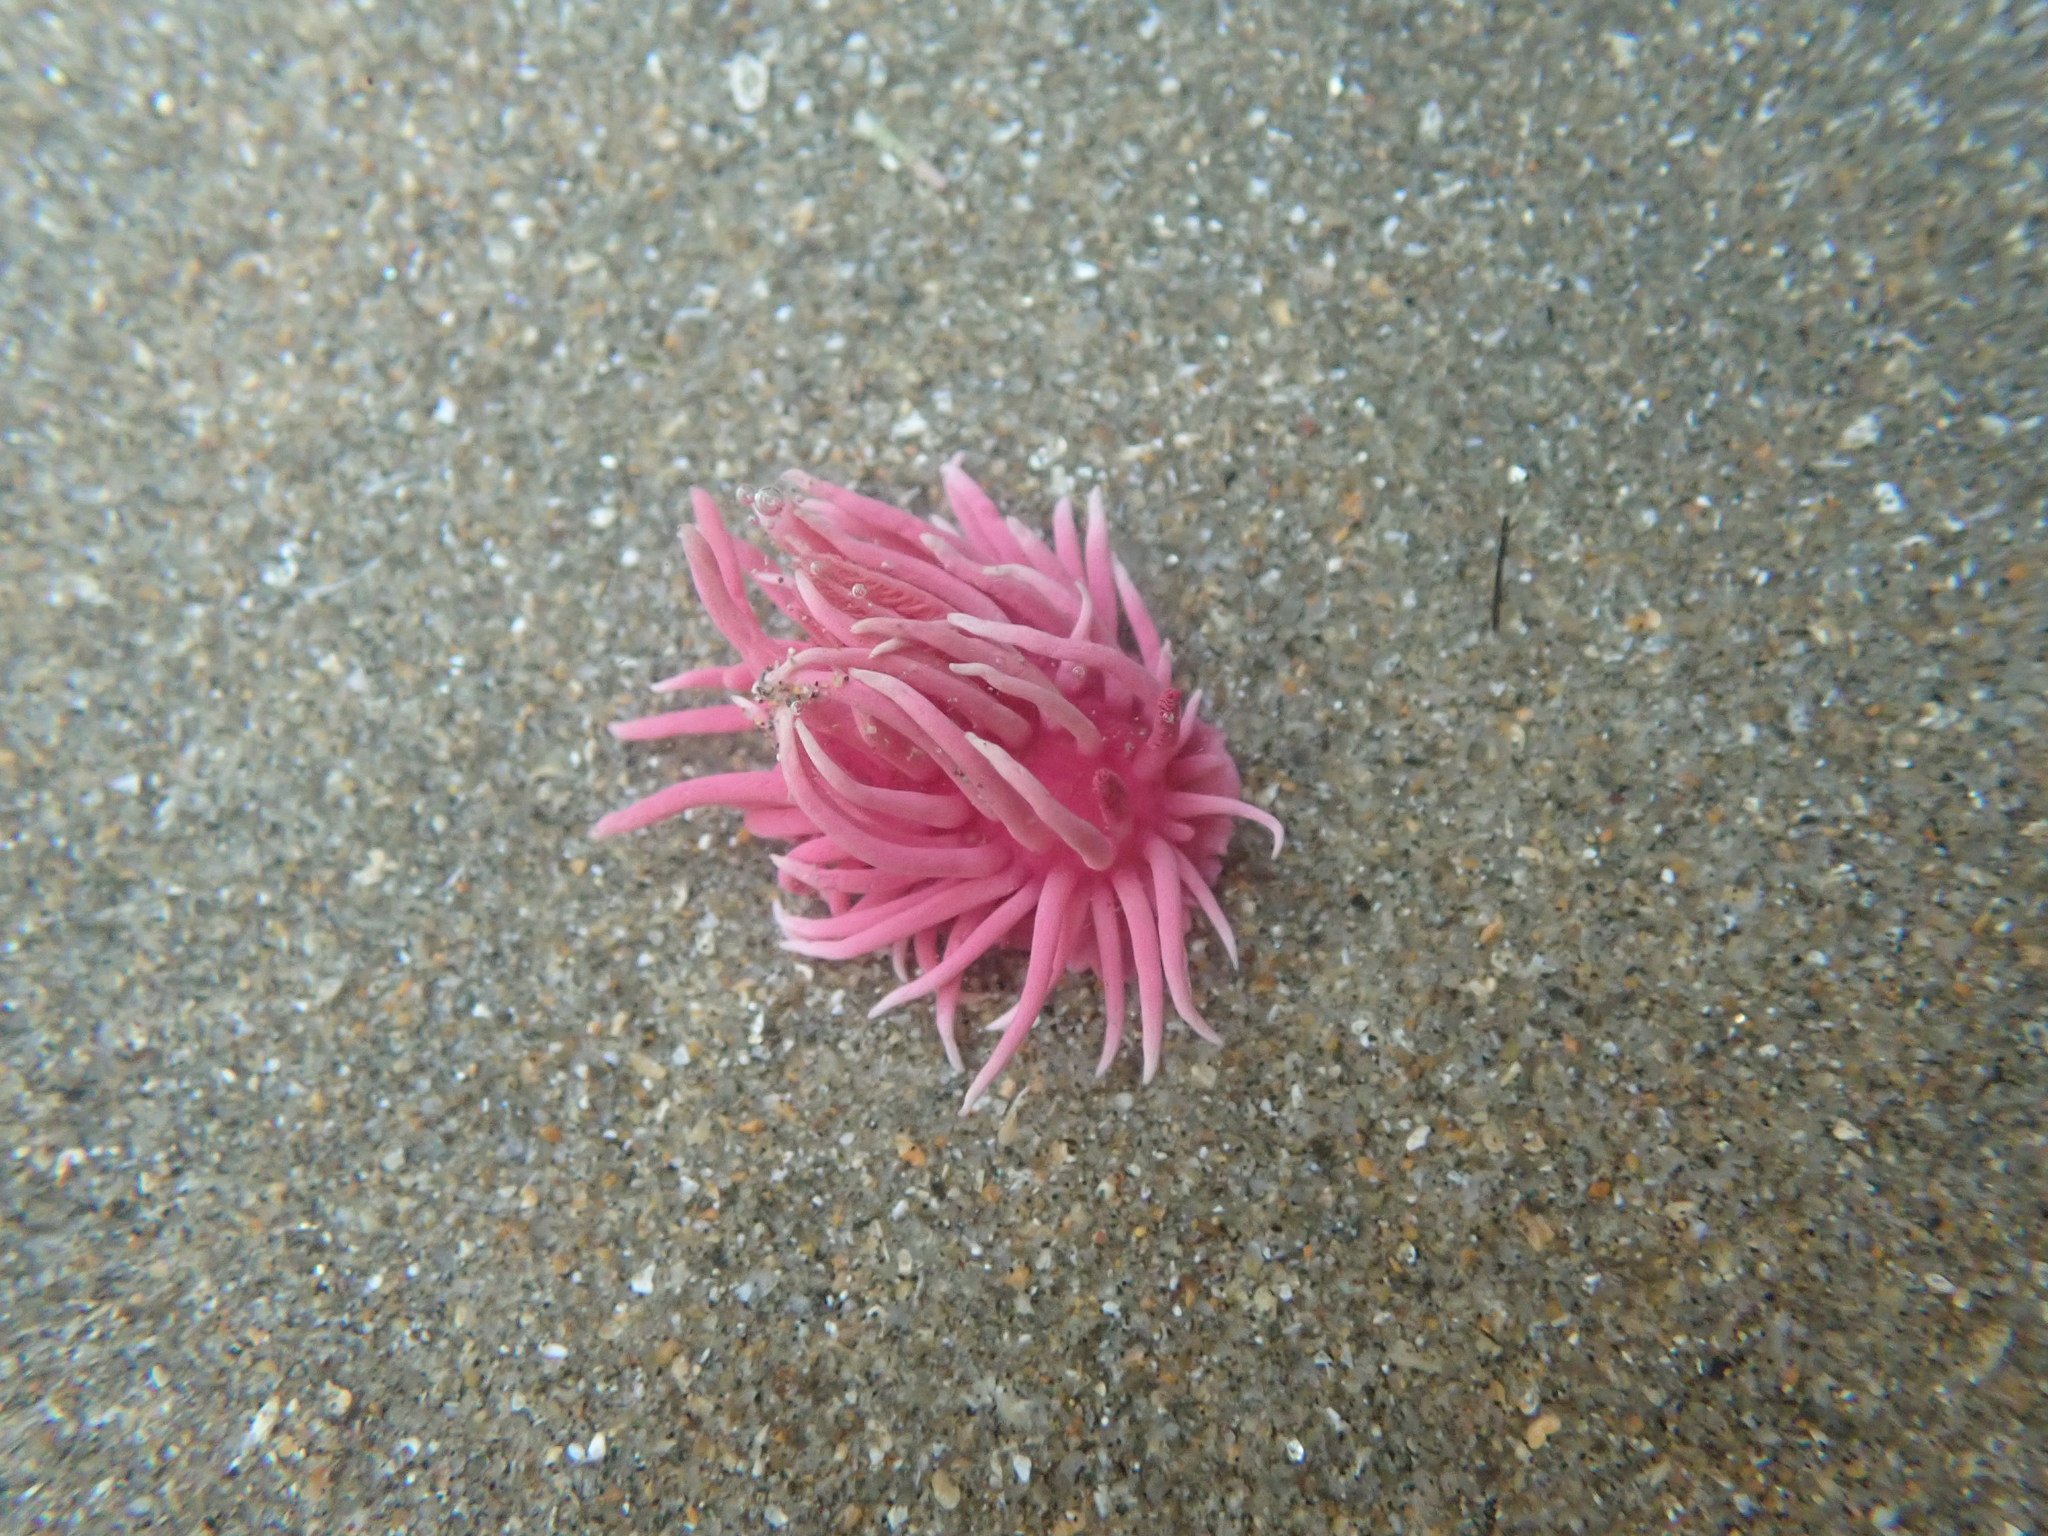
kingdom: Animalia
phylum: Mollusca
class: Gastropoda
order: Nudibranchia
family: Goniodorididae
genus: Okenia
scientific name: Okenia
